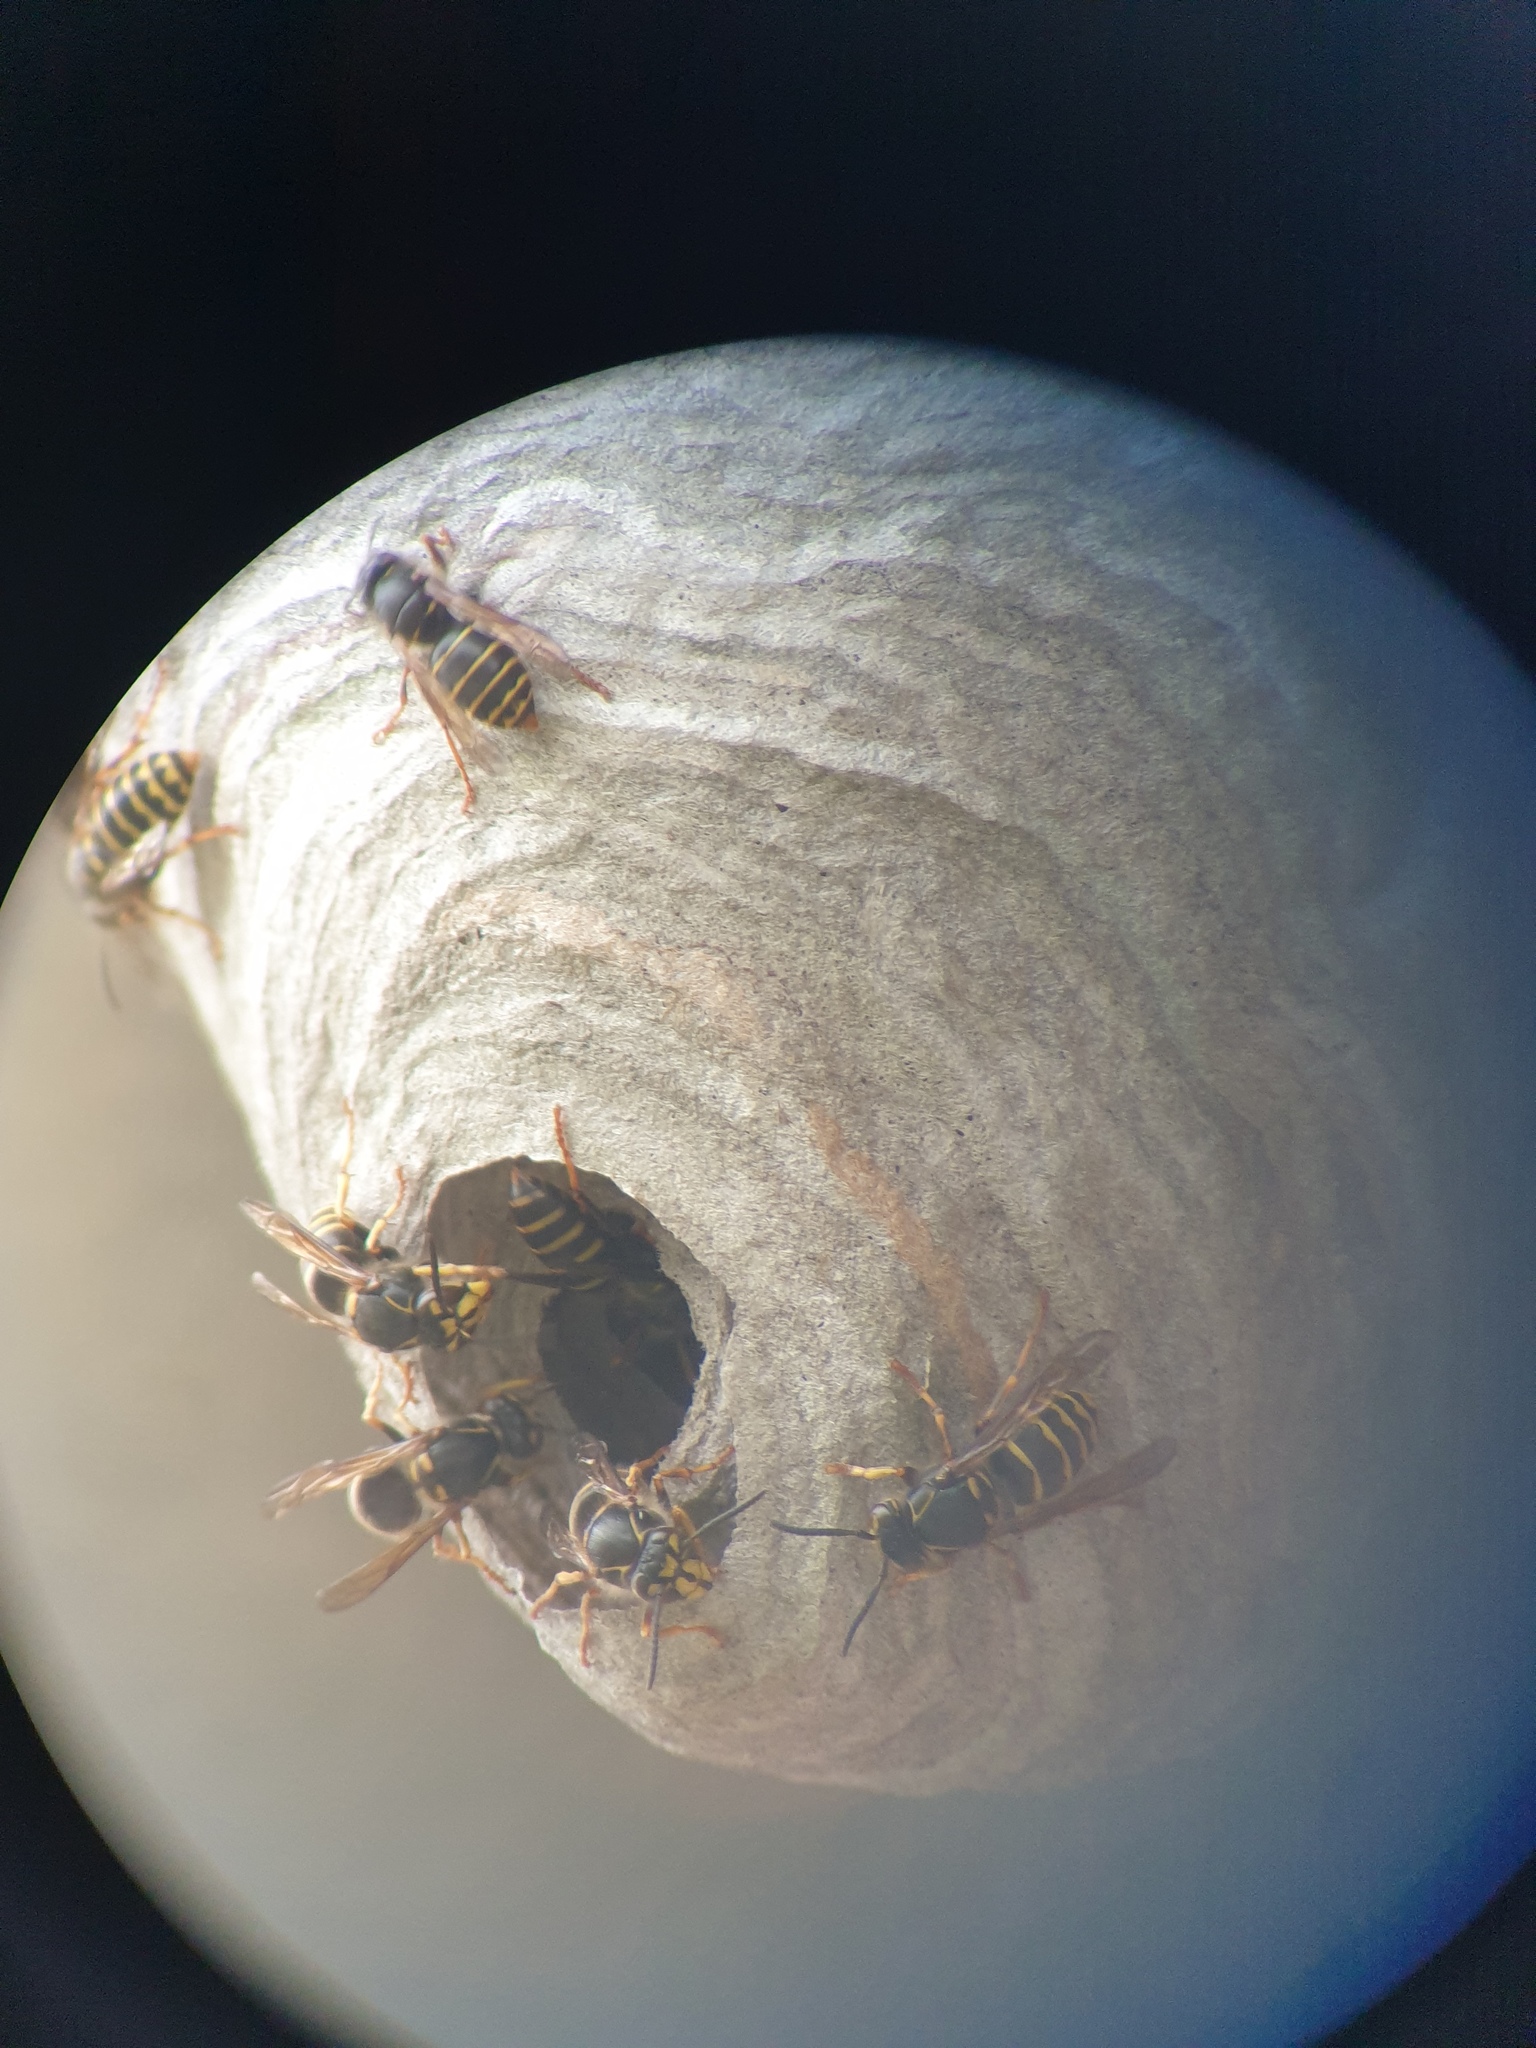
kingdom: Animalia
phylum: Arthropoda
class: Insecta
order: Hymenoptera
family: Vespidae
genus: Dolichovespula
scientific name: Dolichovespula media
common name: Median wasp
